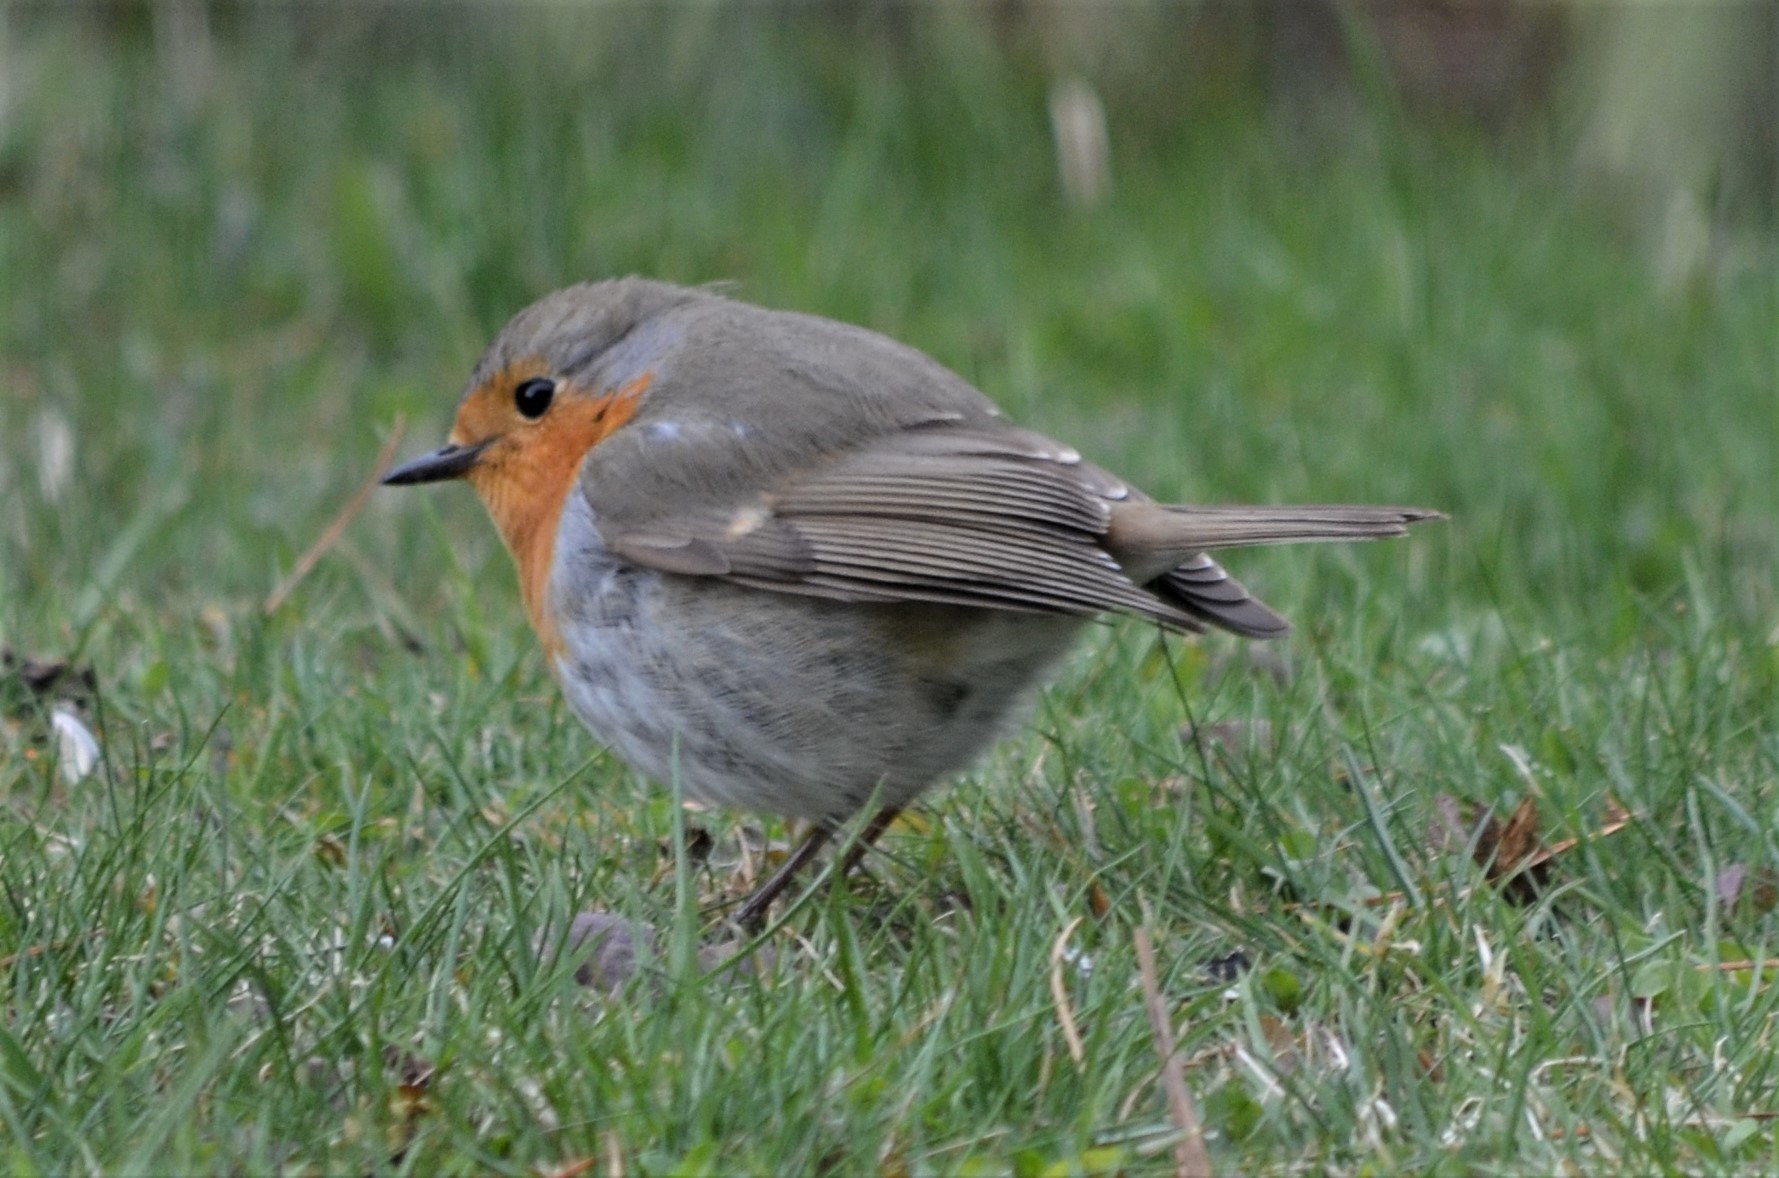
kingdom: Animalia
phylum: Chordata
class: Aves
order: Passeriformes
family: Muscicapidae
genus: Erithacus
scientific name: Erithacus rubecula
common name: European robin
